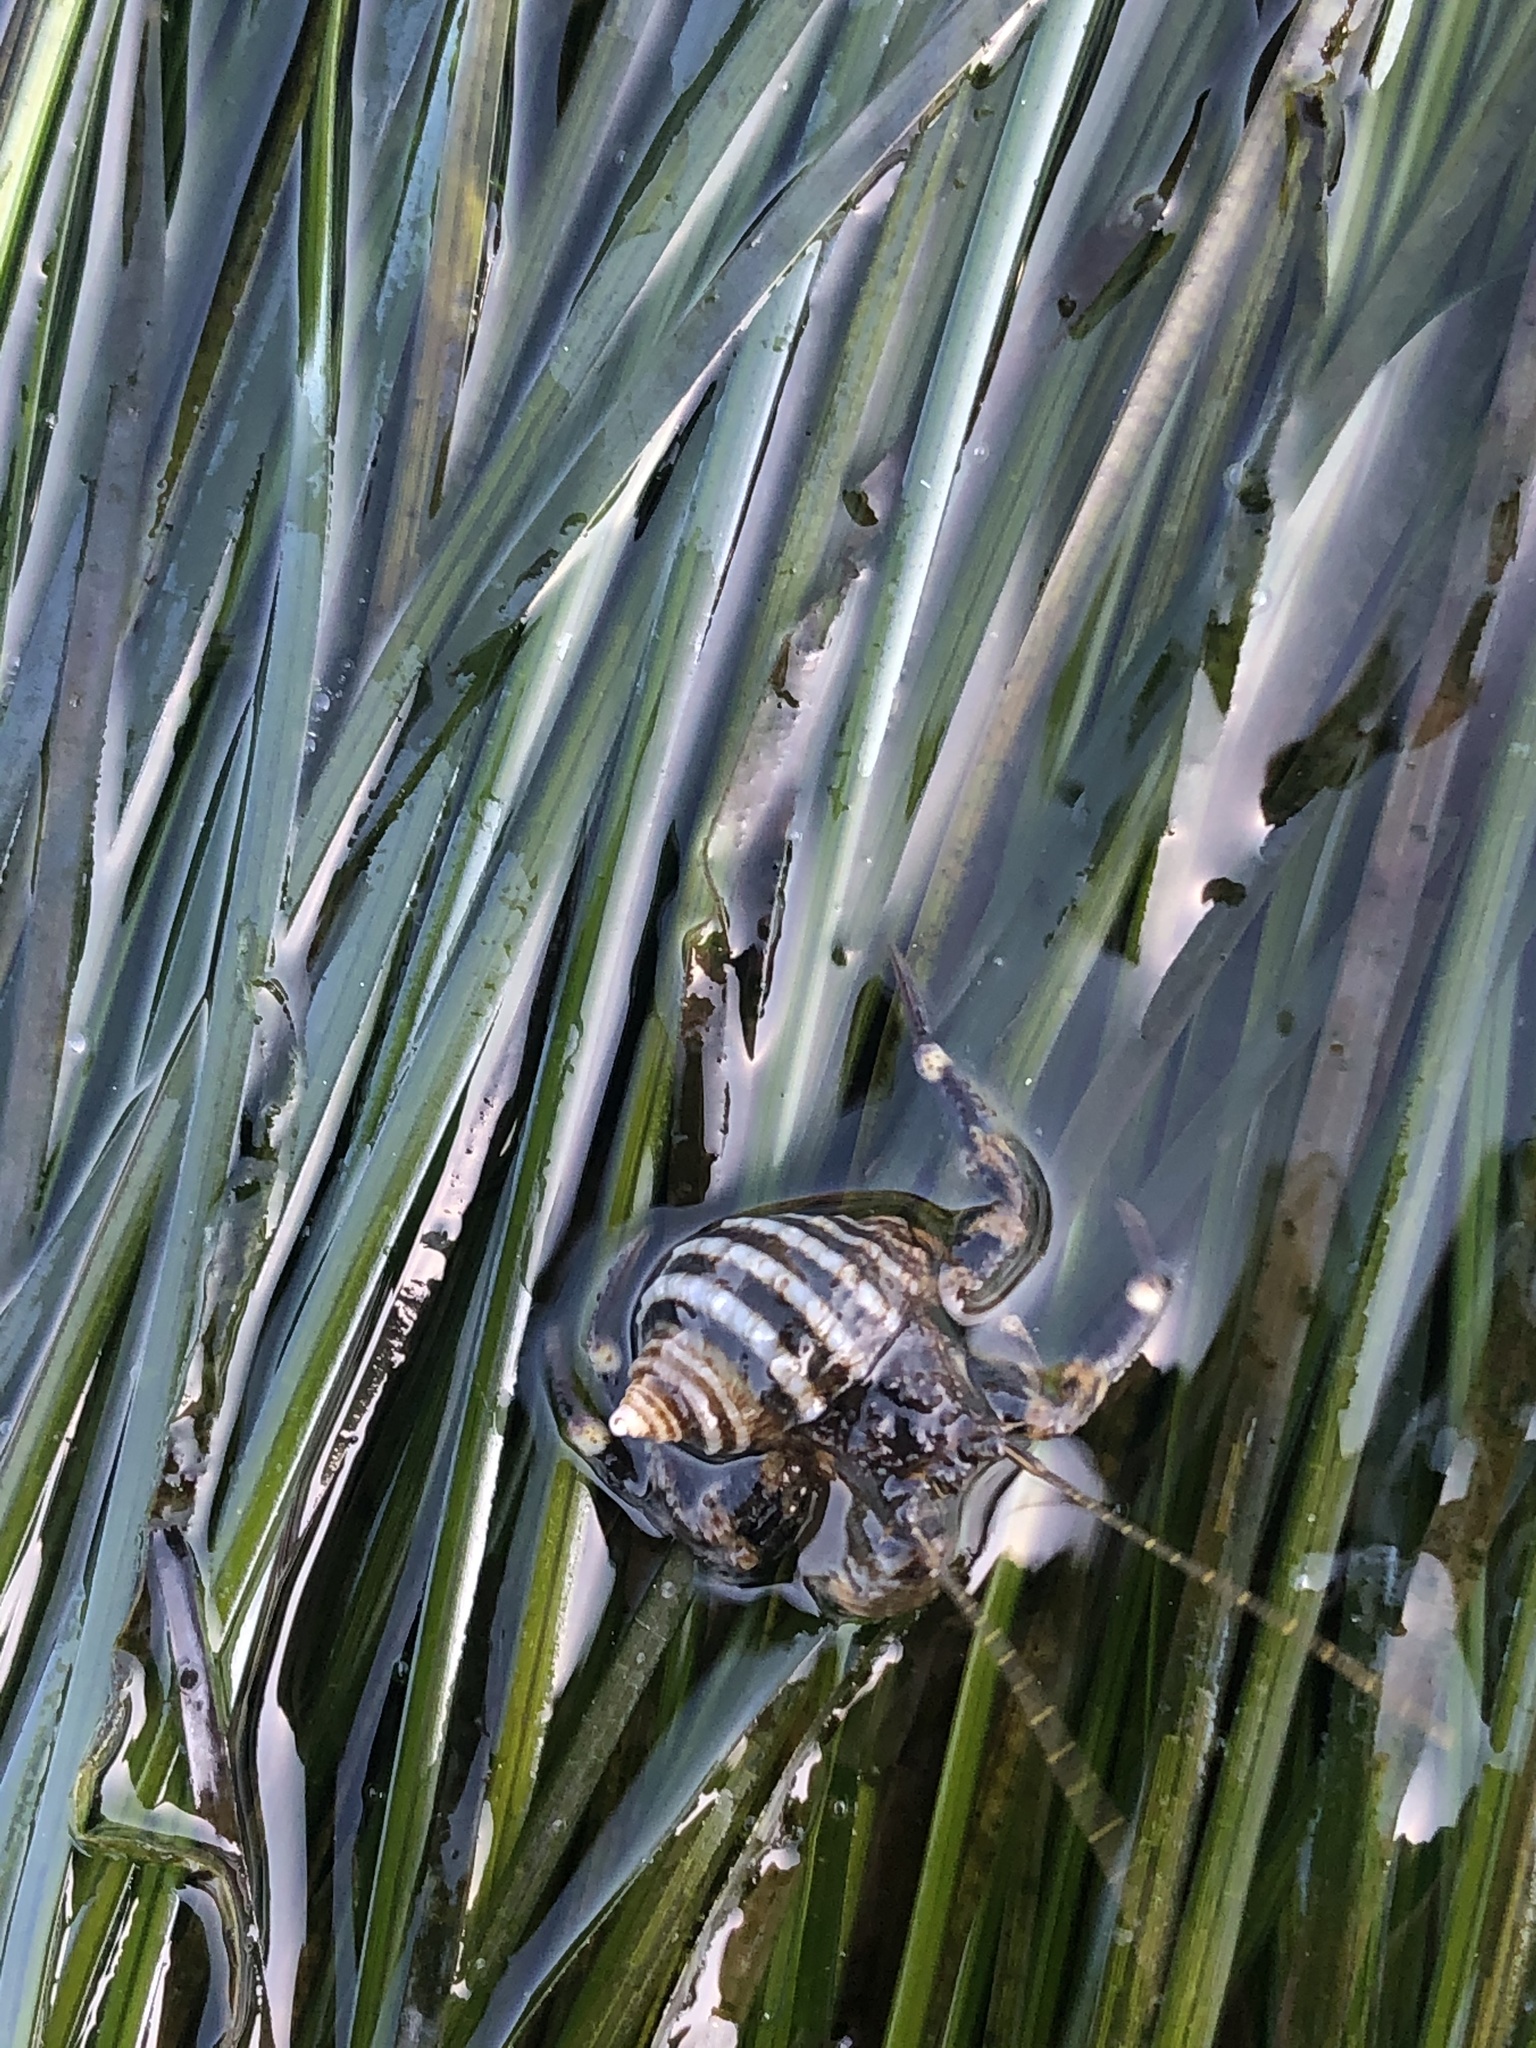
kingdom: Animalia
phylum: Arthropoda
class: Malacostraca
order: Decapoda
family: Paguridae
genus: Pagurus
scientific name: Pagurus hirsutiusculus
